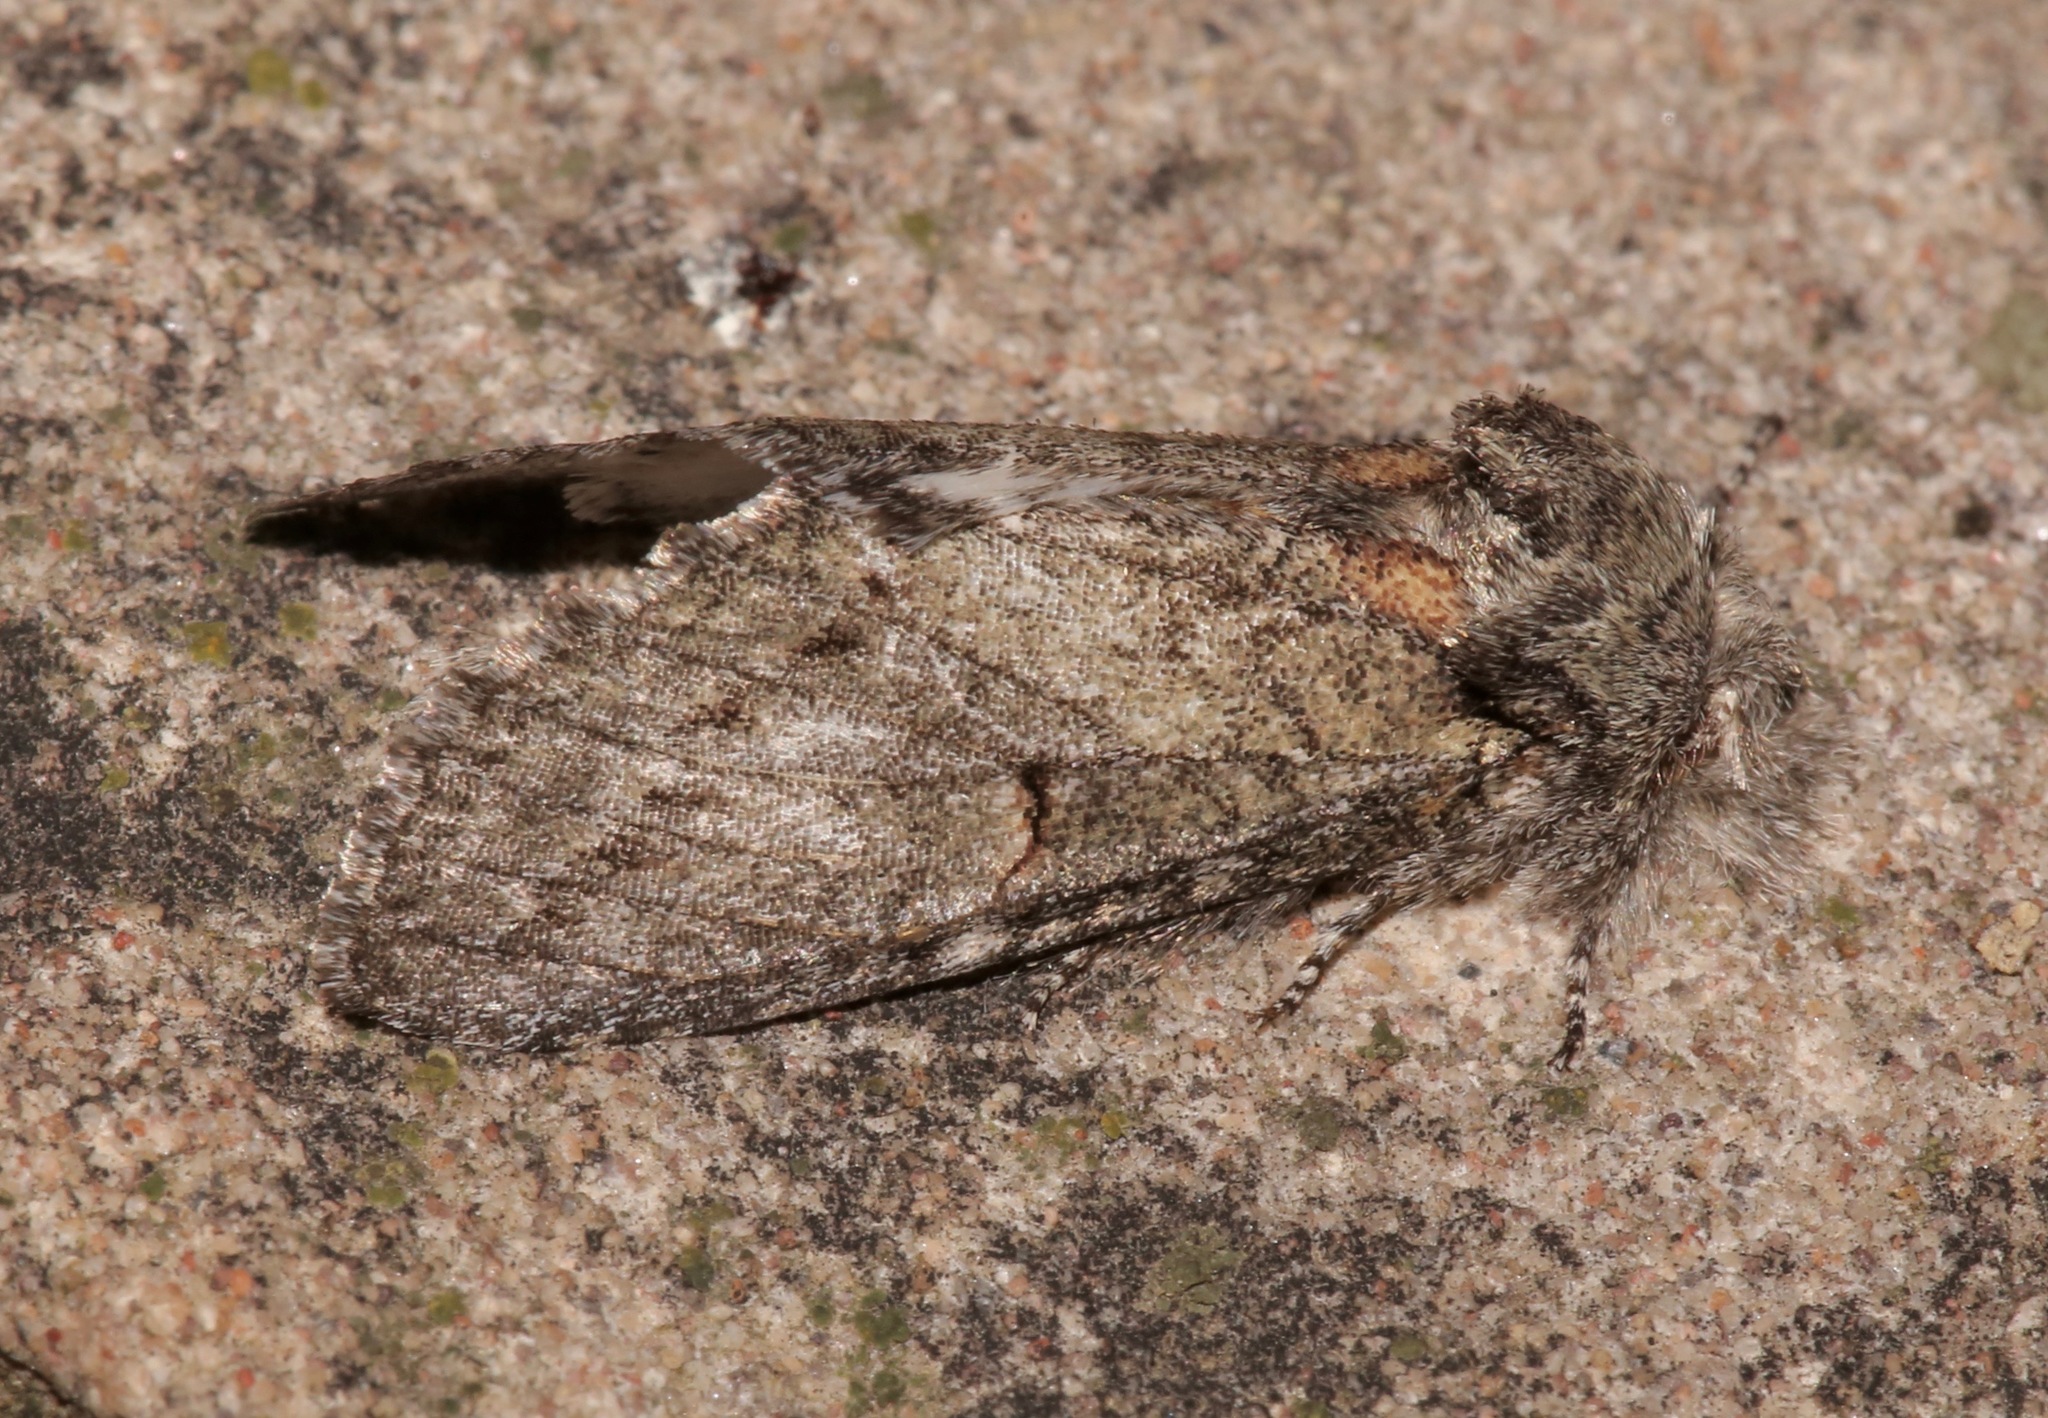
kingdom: Animalia
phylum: Arthropoda
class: Insecta
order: Lepidoptera
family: Notodontidae
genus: Disphragis
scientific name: Disphragis
